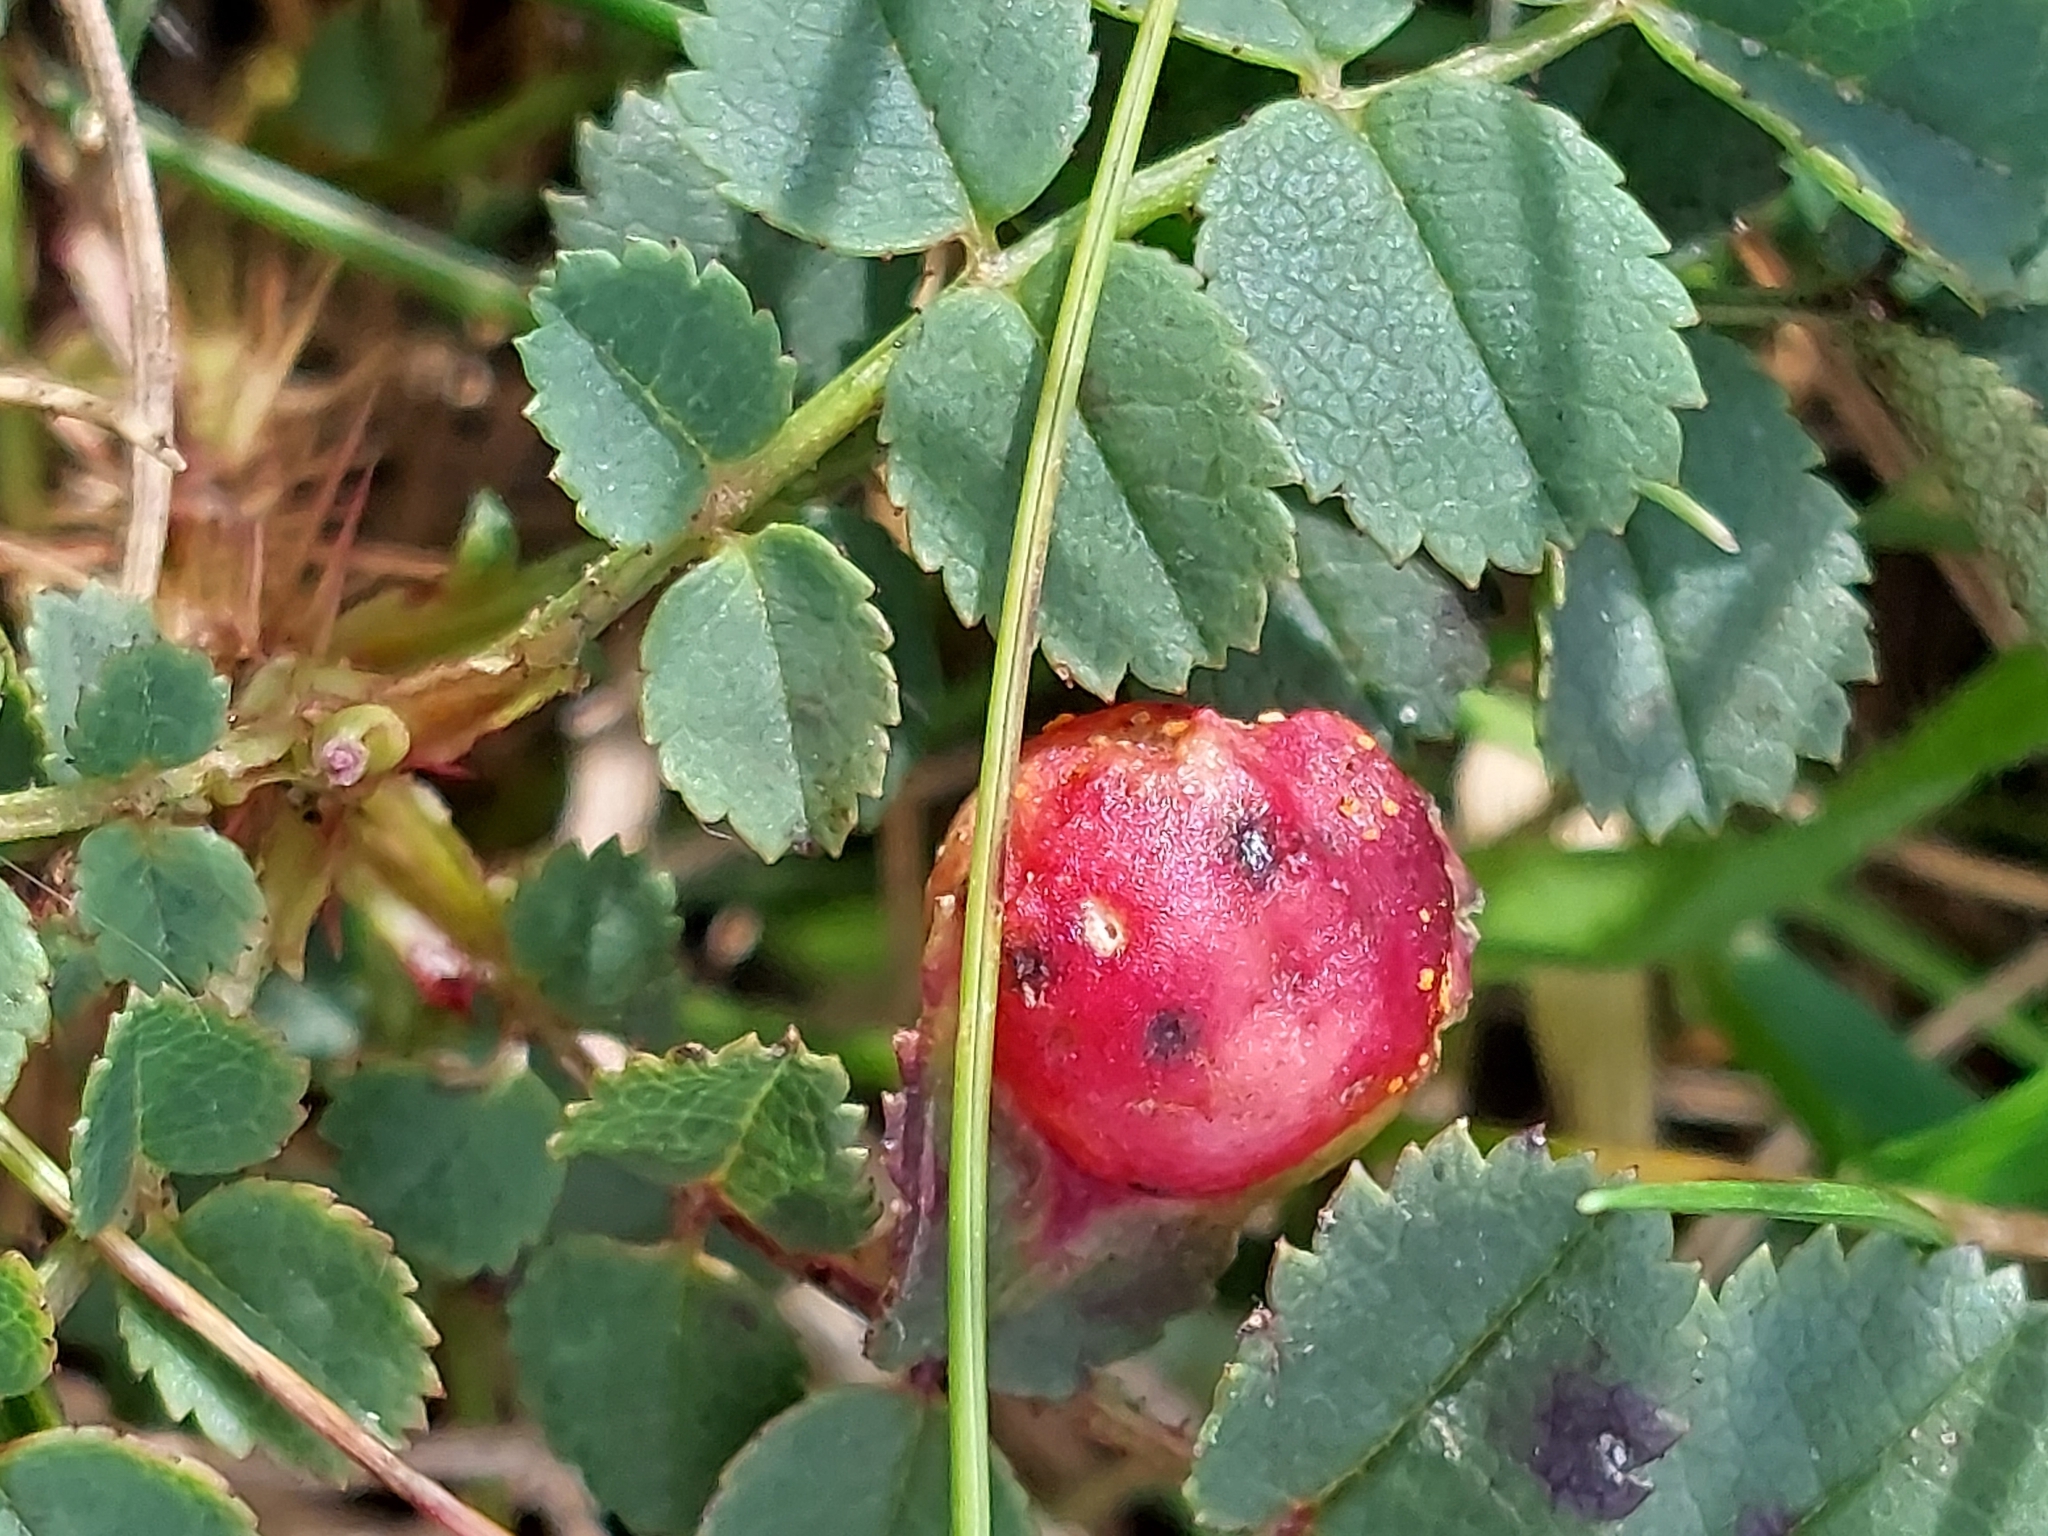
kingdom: Animalia
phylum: Arthropoda
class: Insecta
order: Hymenoptera
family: Cynipidae
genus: Diplolepis
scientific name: Diplolepis spinosissimae
